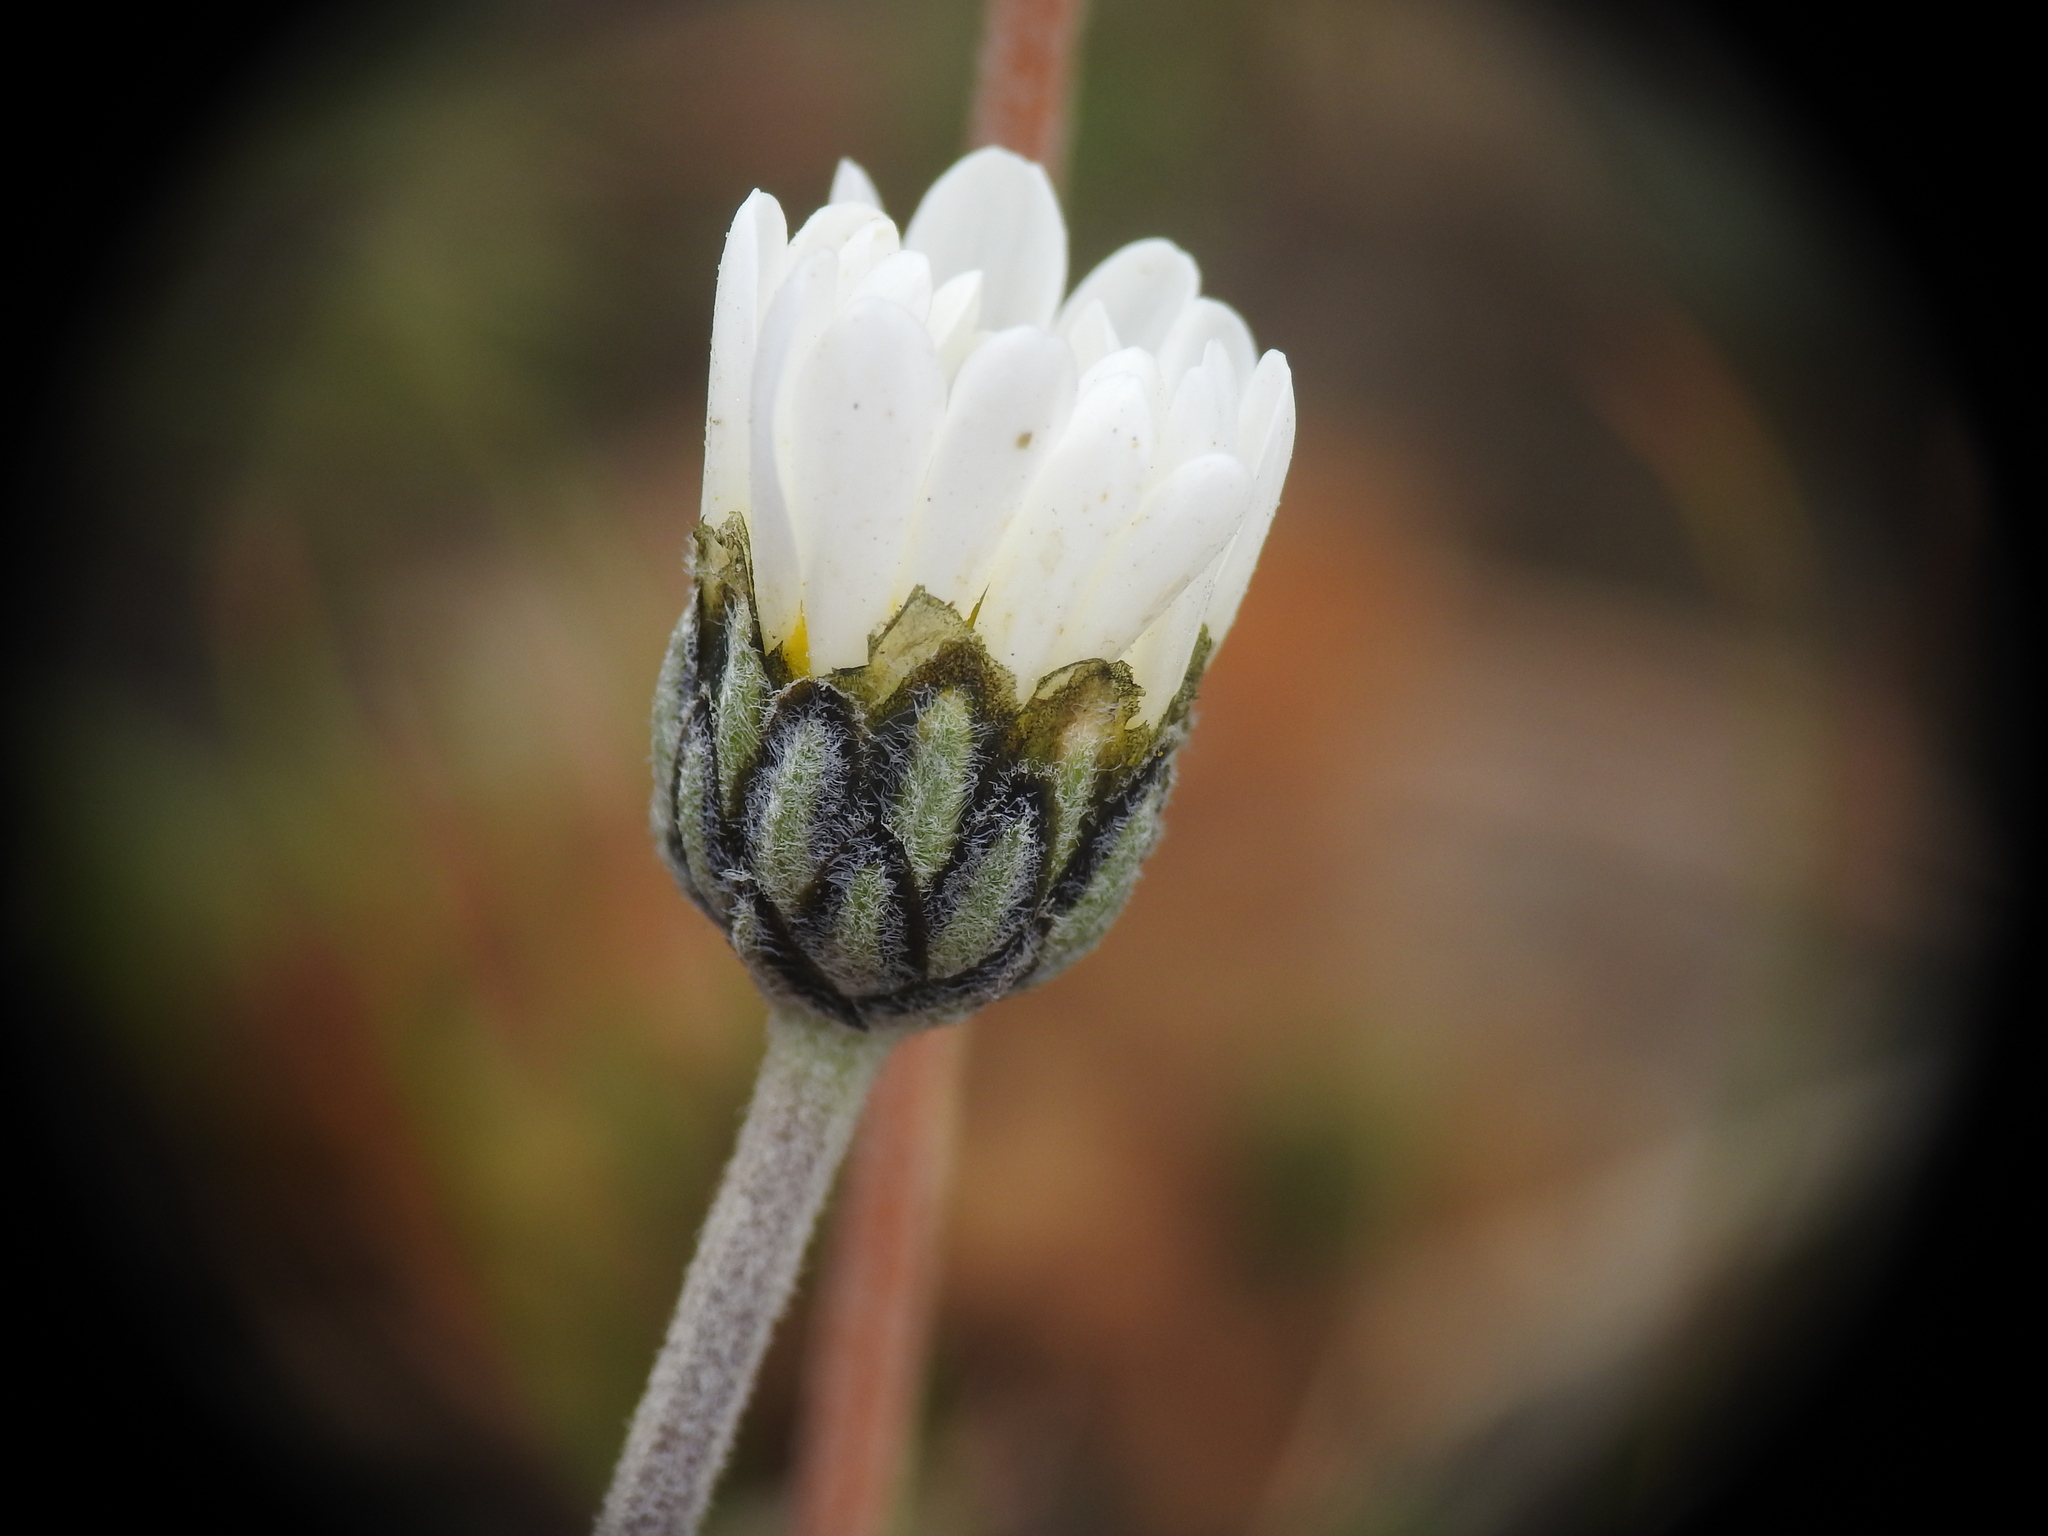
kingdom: Plantae
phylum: Tracheophyta
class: Magnoliopsida
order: Asterales
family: Asteraceae
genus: Leucanthemopsis
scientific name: Leucanthemopsis alpina
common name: Alpine moon daisy
